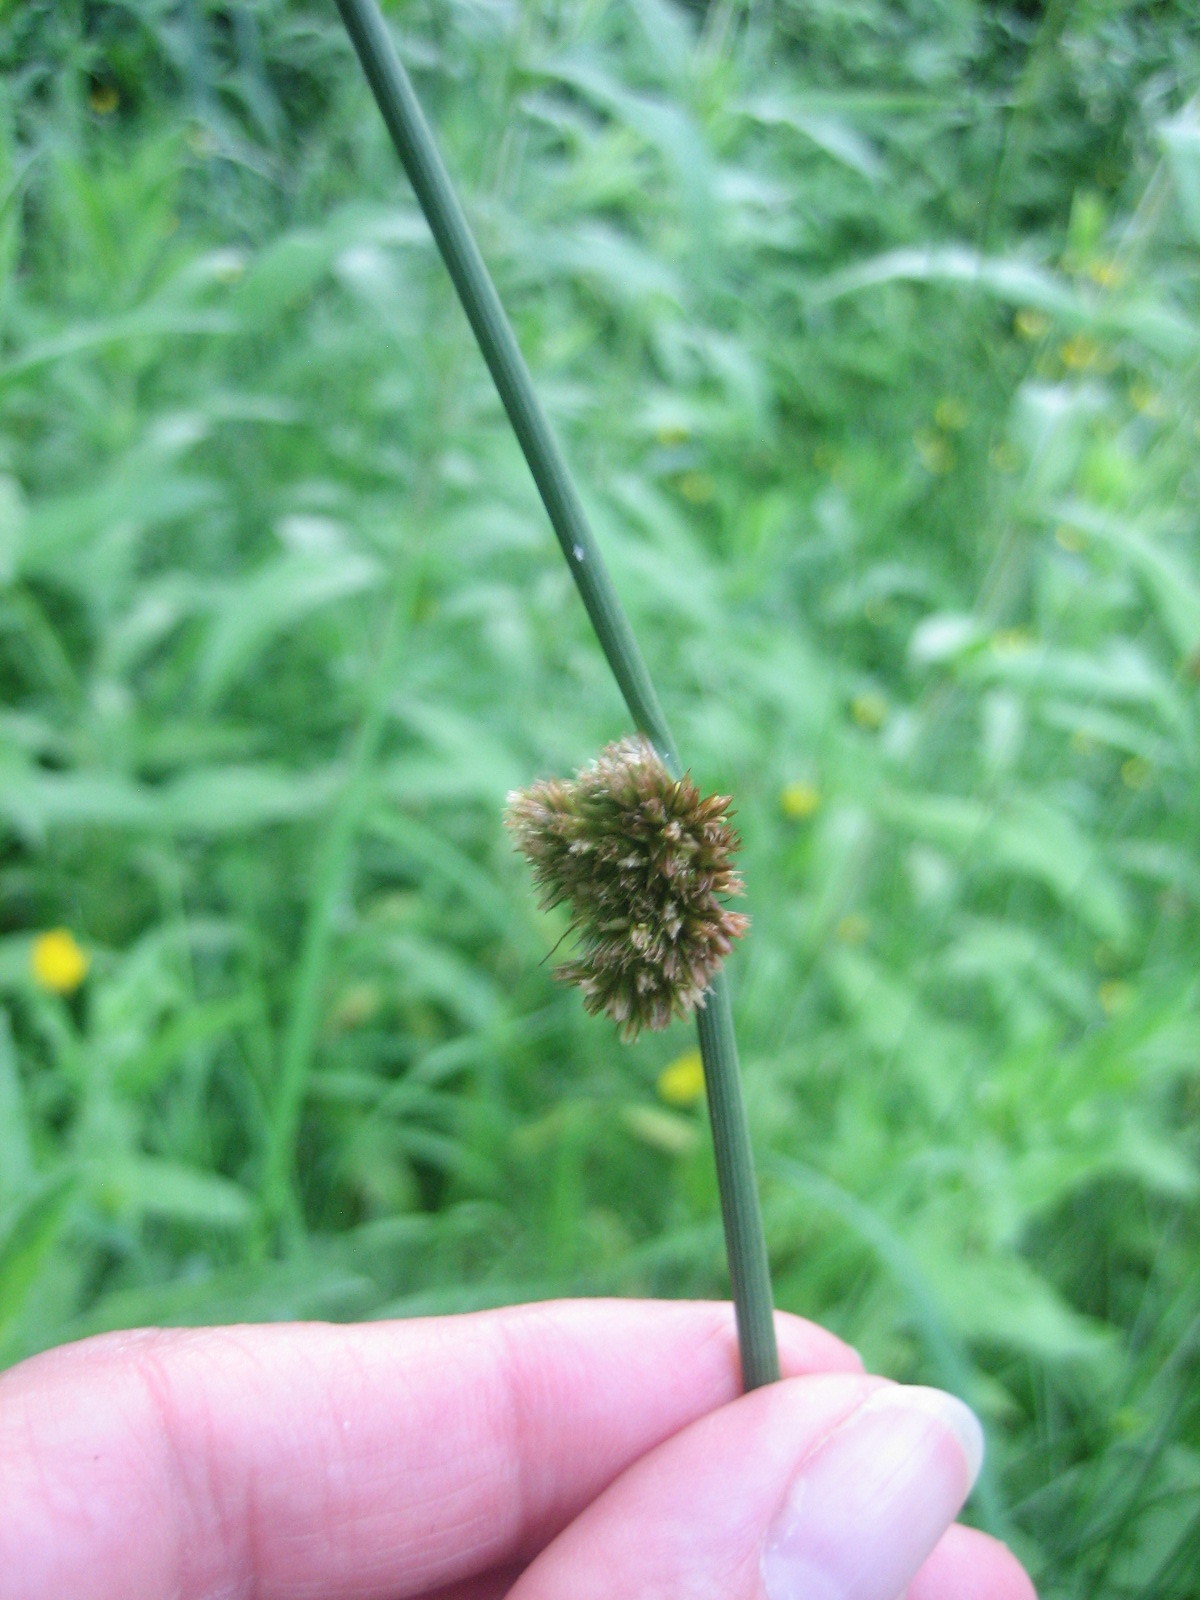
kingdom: Plantae
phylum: Tracheophyta
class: Liliopsida
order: Poales
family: Juncaceae
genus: Juncus
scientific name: Juncus conglomeratus
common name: Compact rush
